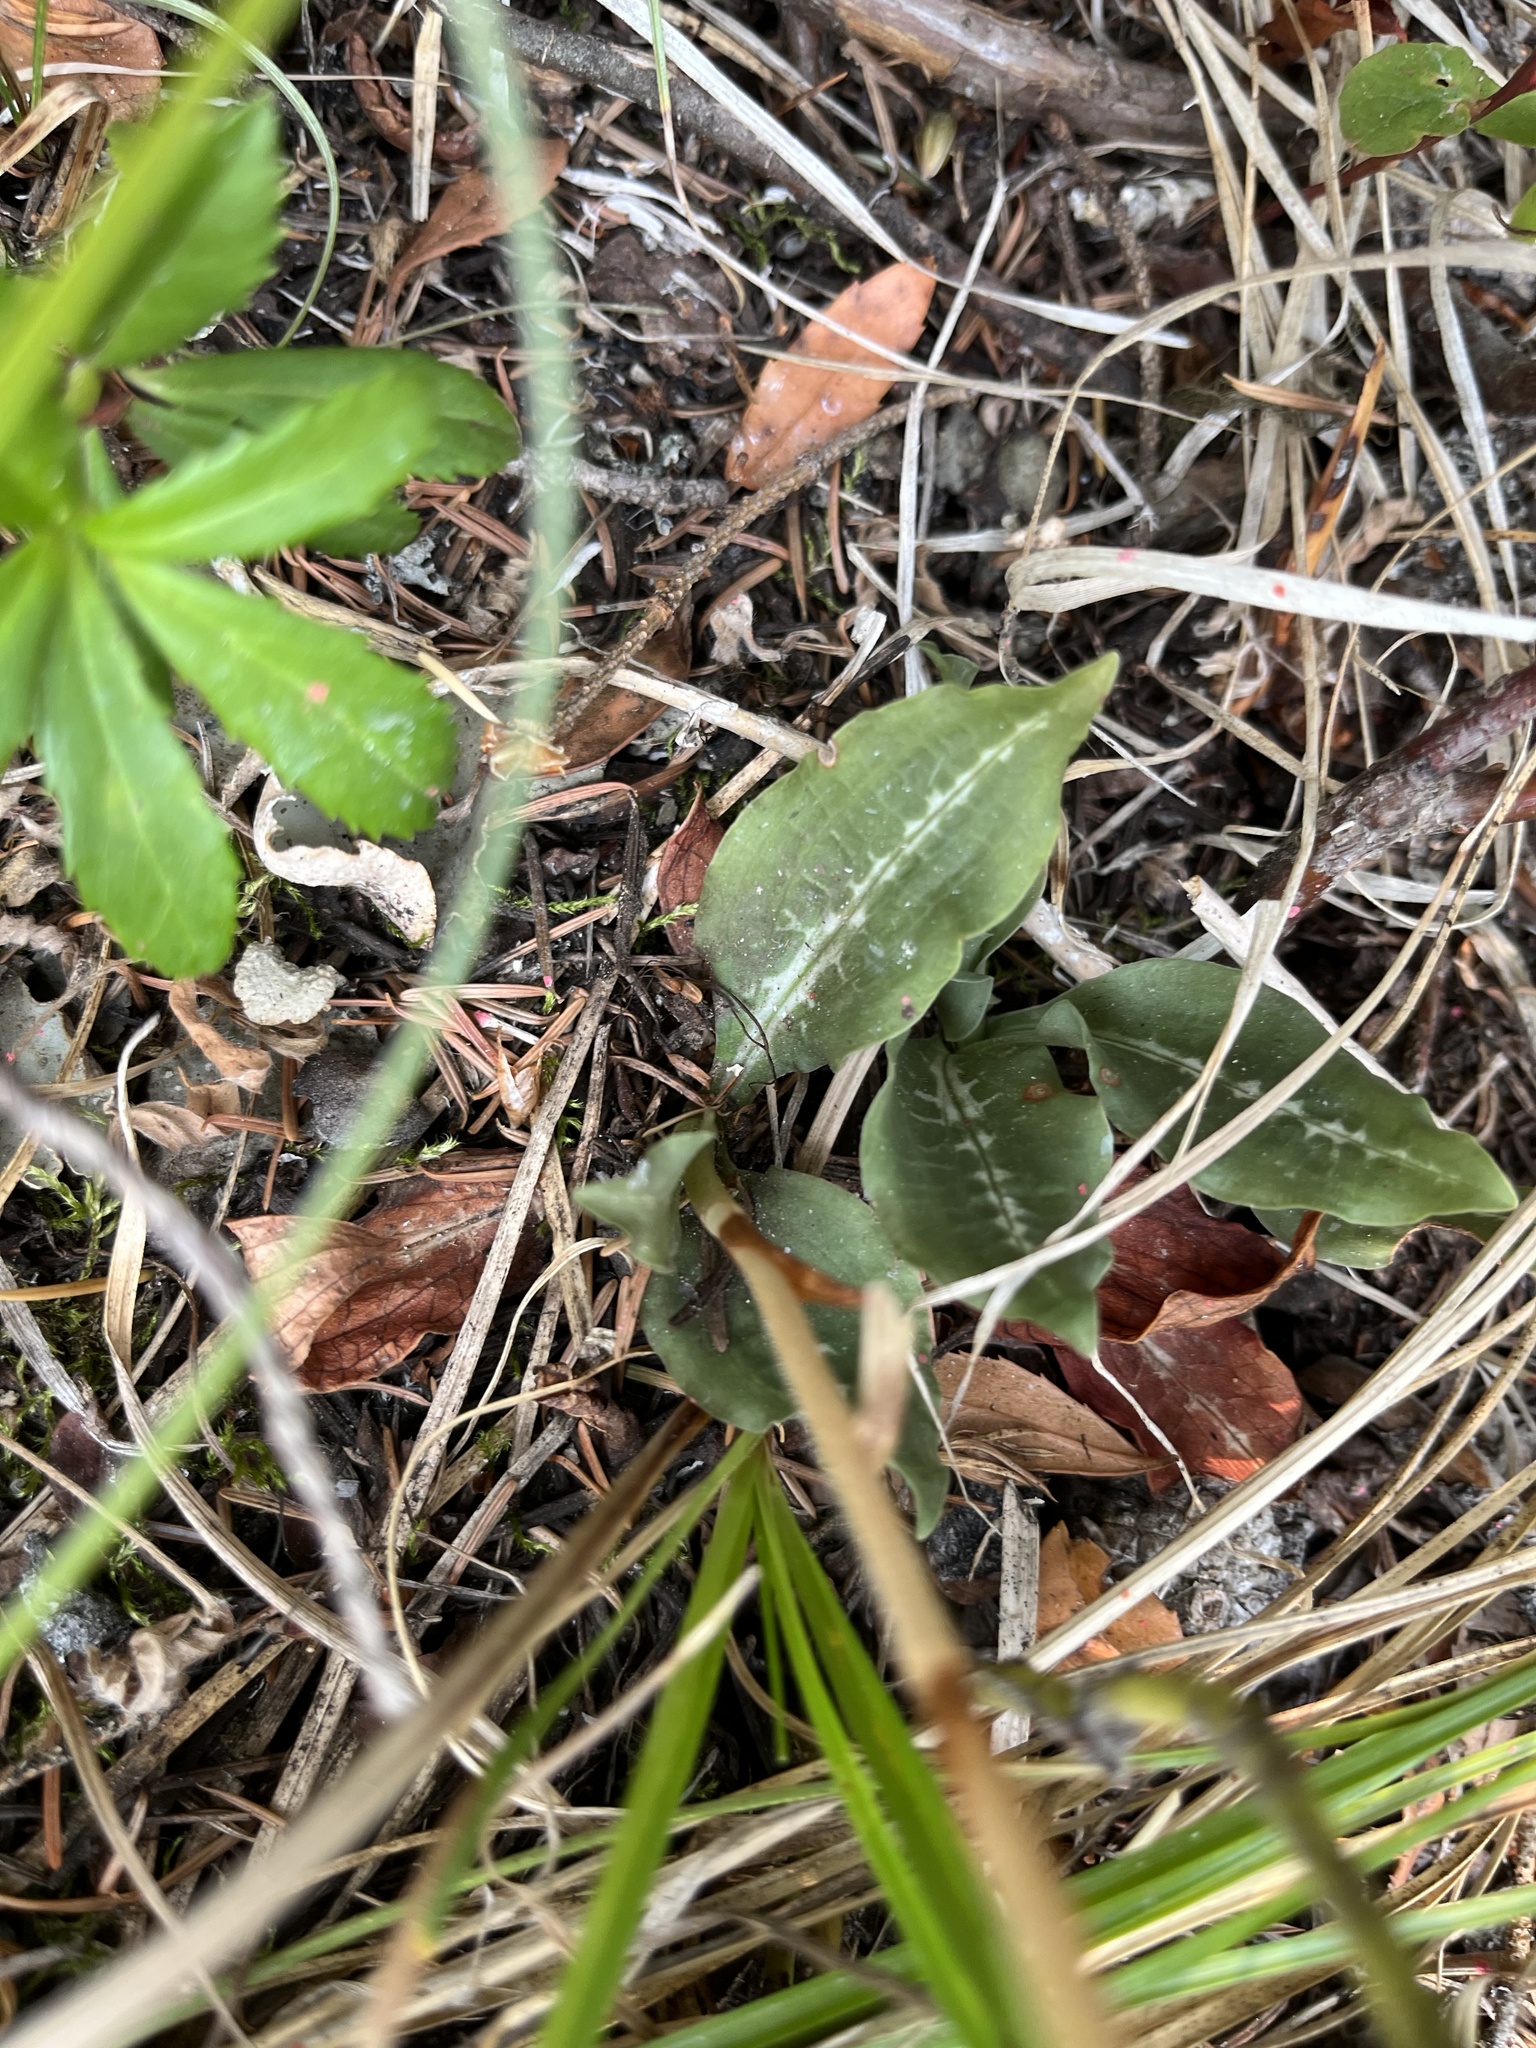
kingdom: Plantae
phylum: Tracheophyta
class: Liliopsida
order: Asparagales
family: Orchidaceae
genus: Goodyera
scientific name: Goodyera oblongifolia
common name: Giant rattlesnake-plantain
